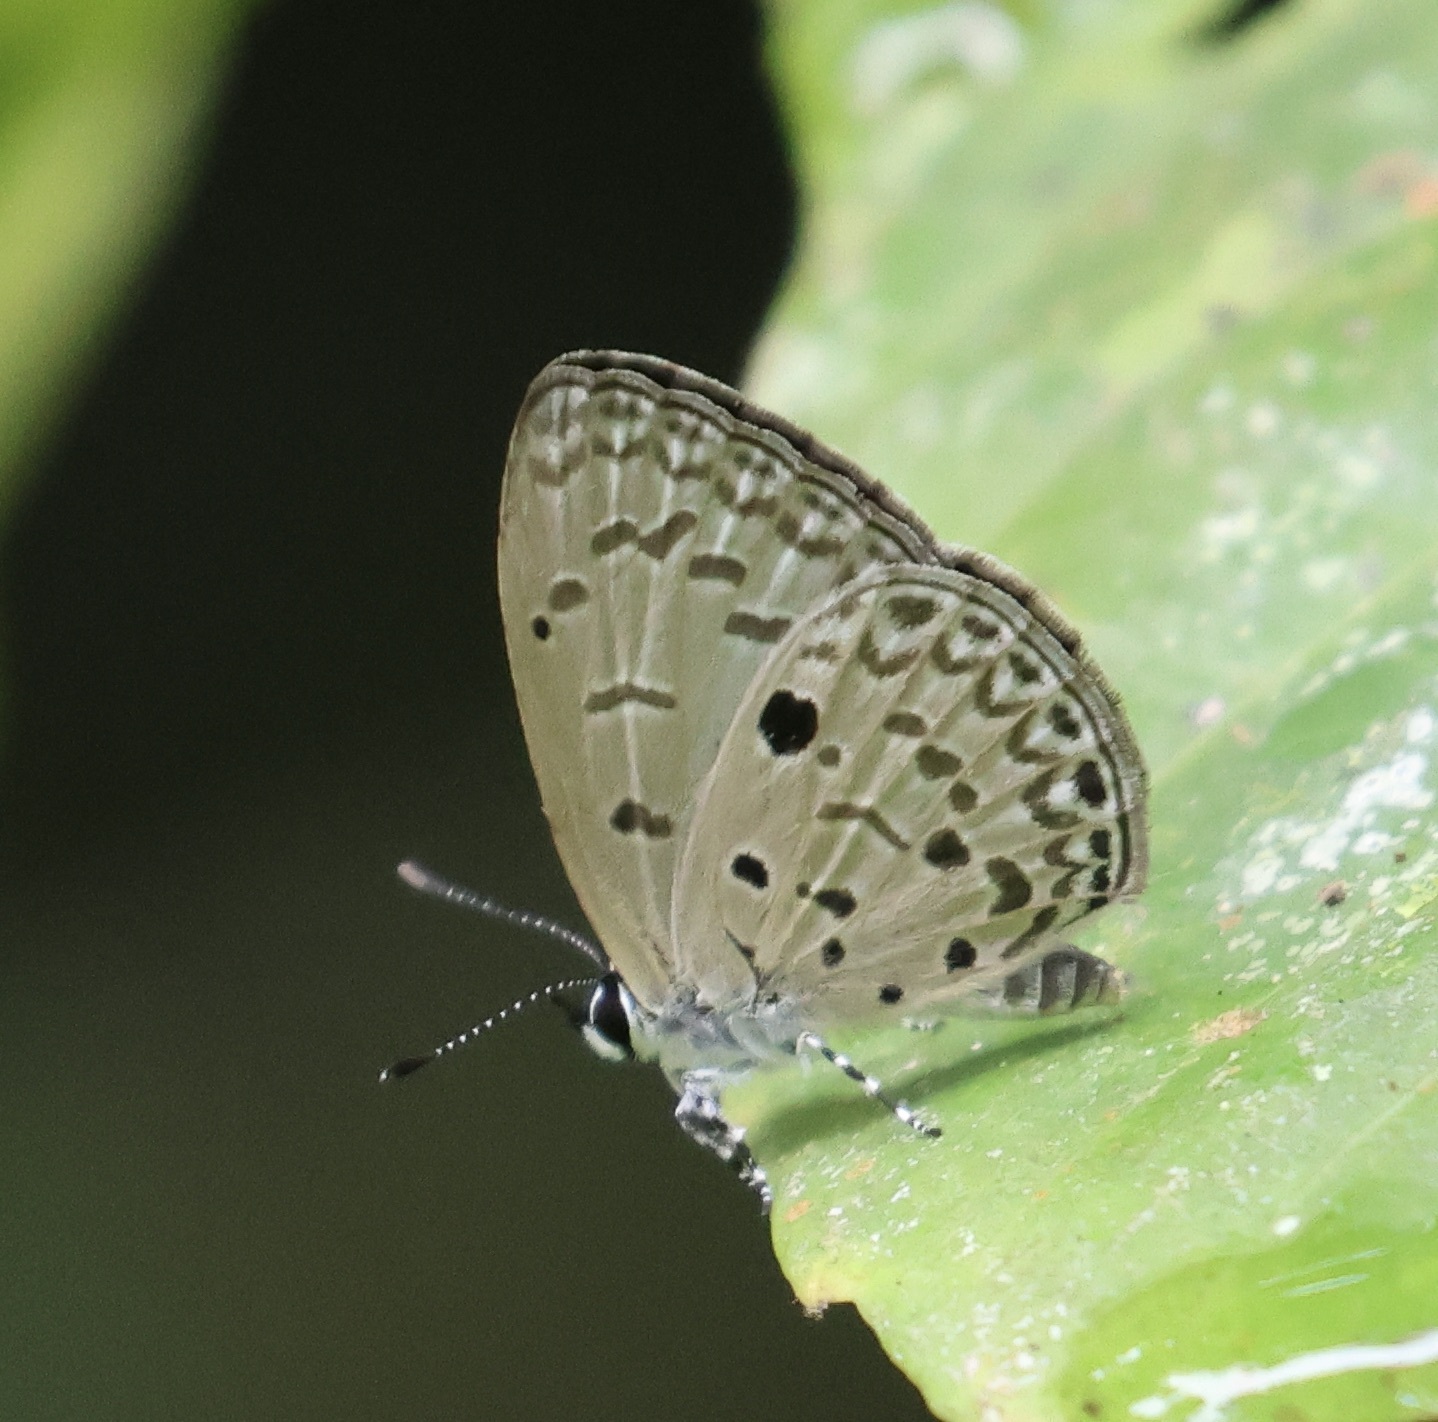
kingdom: Animalia
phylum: Arthropoda
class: Insecta
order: Lepidoptera
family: Lycaenidae
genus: Acytolepis
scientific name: Acytolepis
